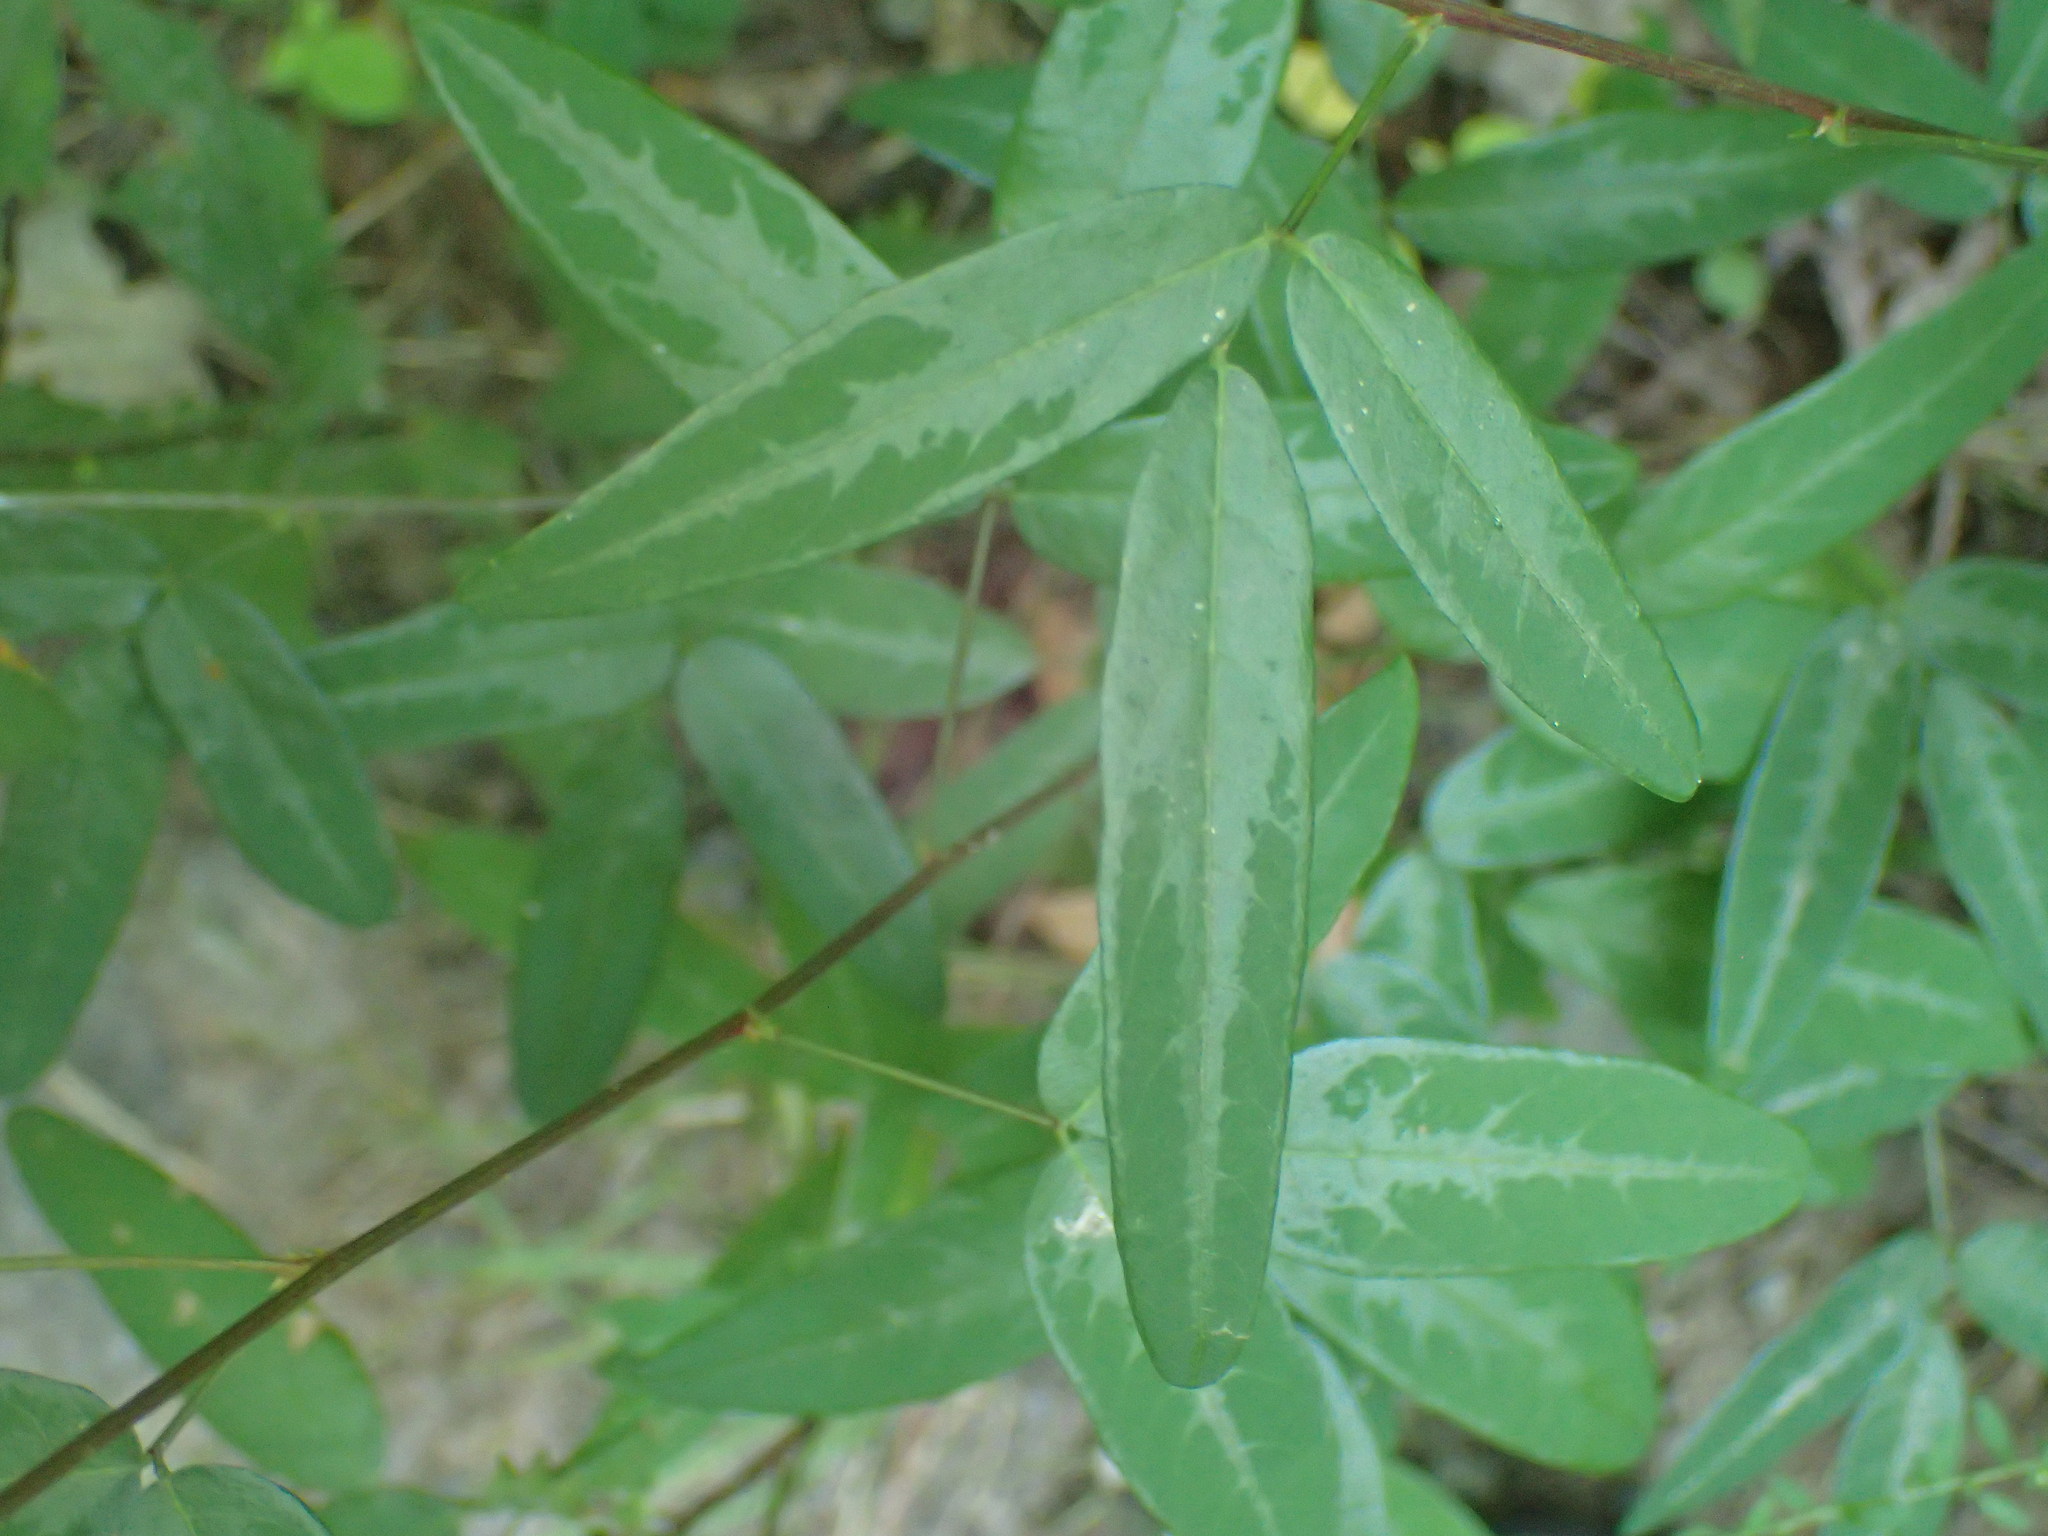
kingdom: Plantae
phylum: Tracheophyta
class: Magnoliopsida
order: Fabales
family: Fabaceae
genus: Desmodium
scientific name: Desmodium paniculatum
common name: Panicled tick-clover
